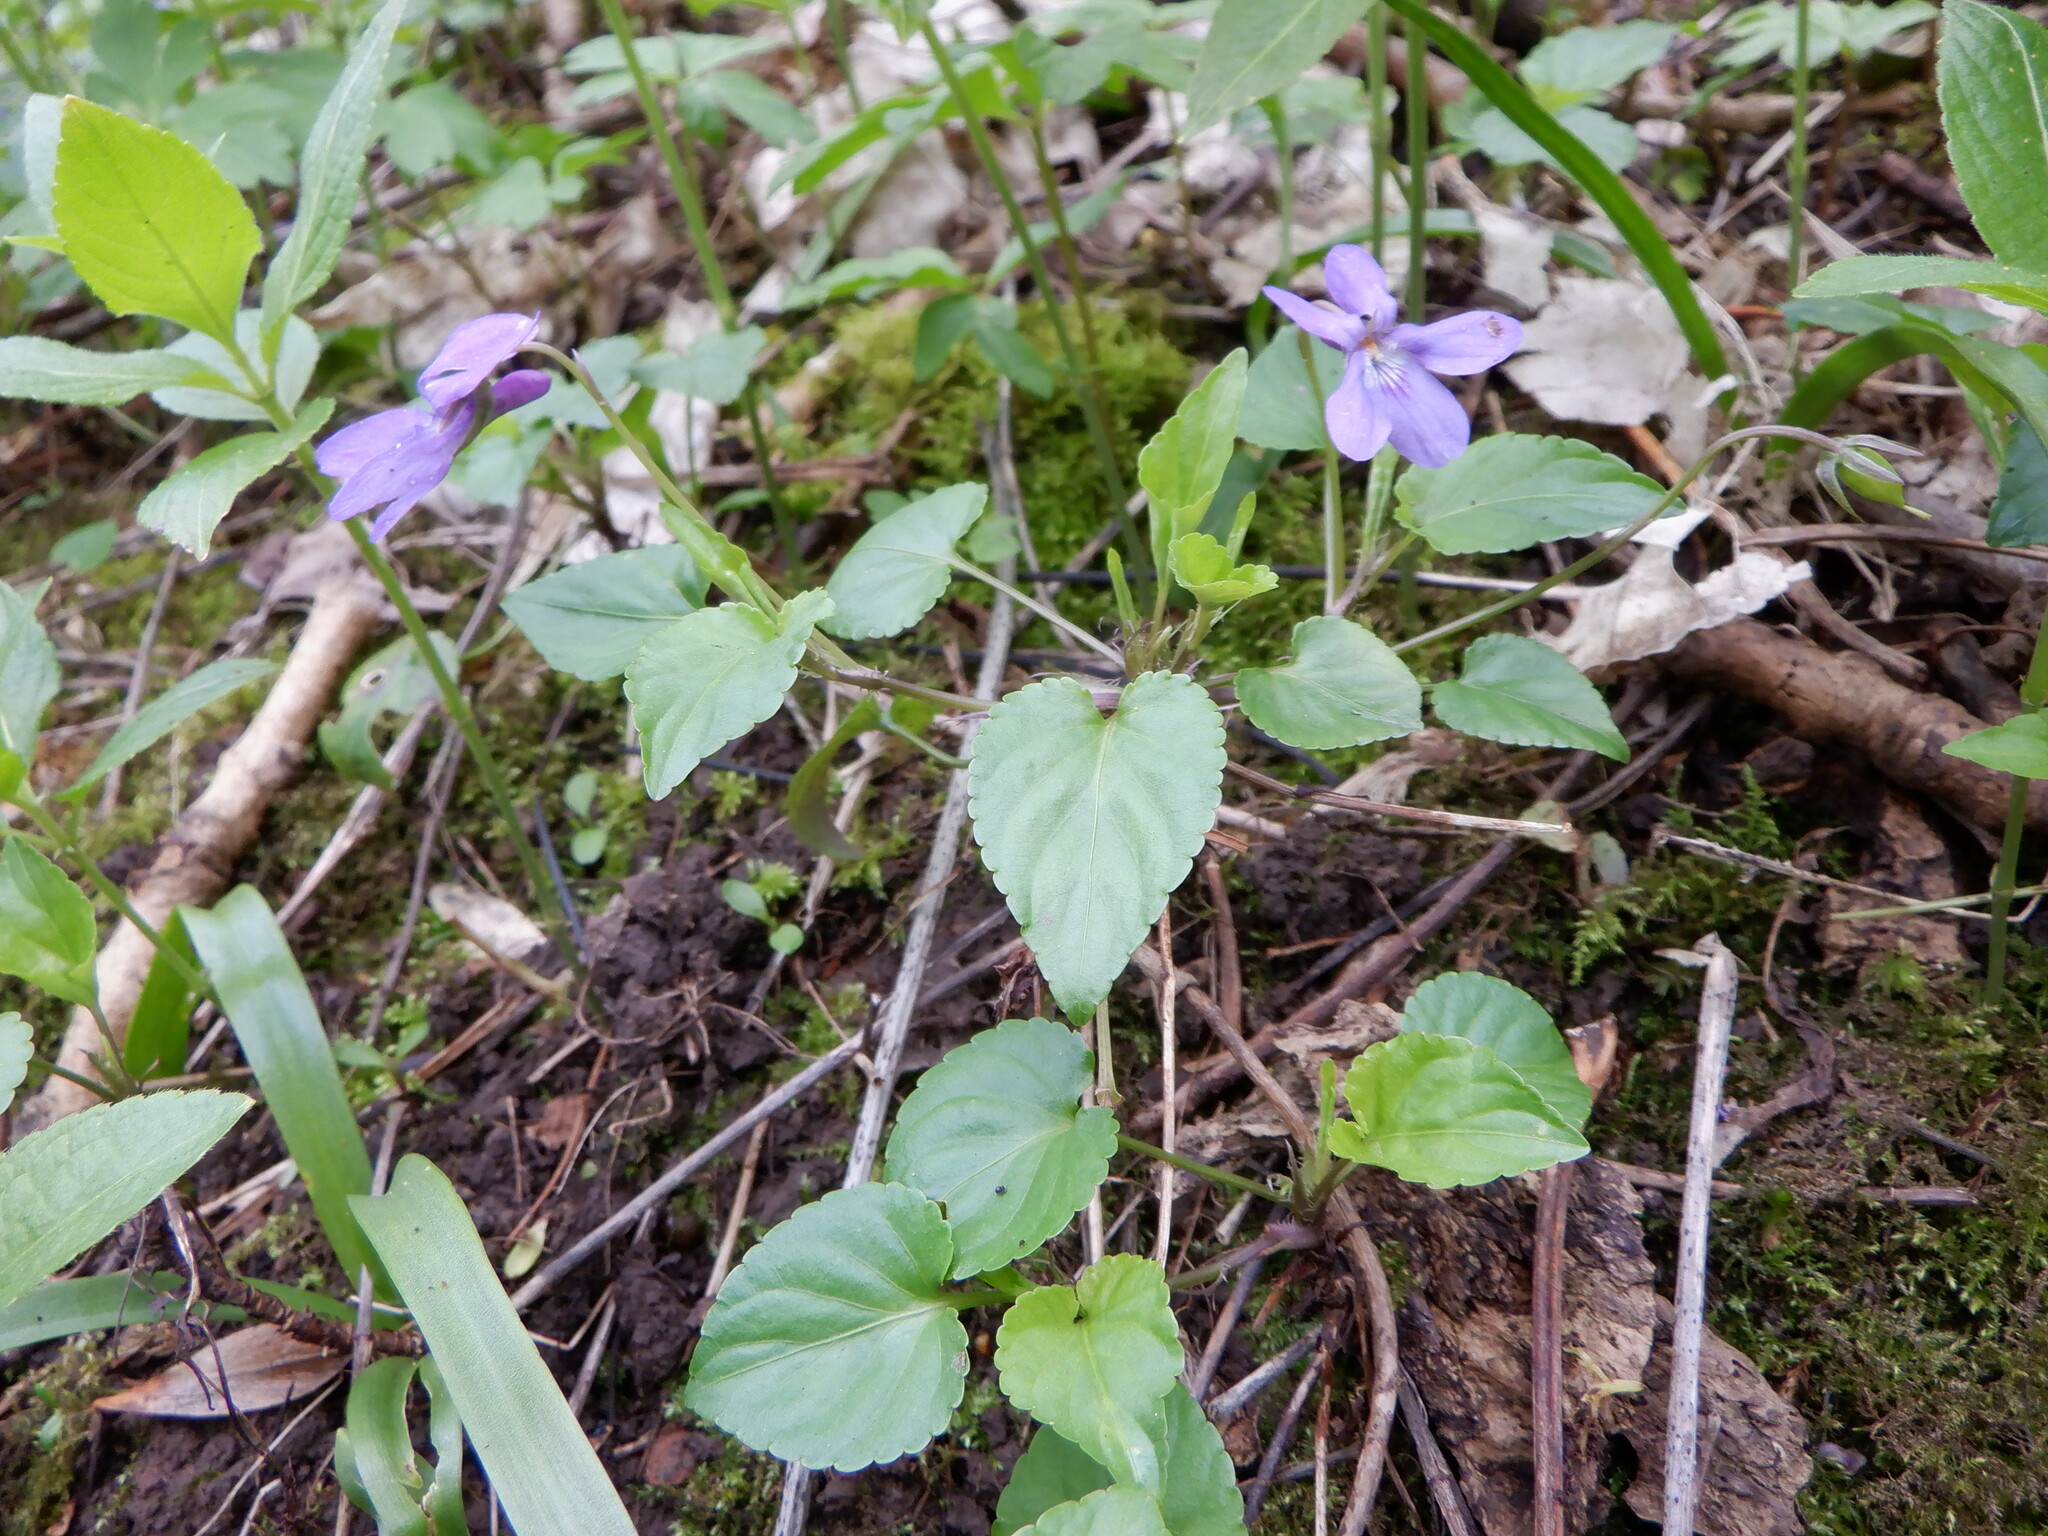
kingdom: Plantae
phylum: Tracheophyta
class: Magnoliopsida
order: Malpighiales
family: Violaceae
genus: Viola
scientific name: Viola reichenbachiana
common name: Early dog-violet
